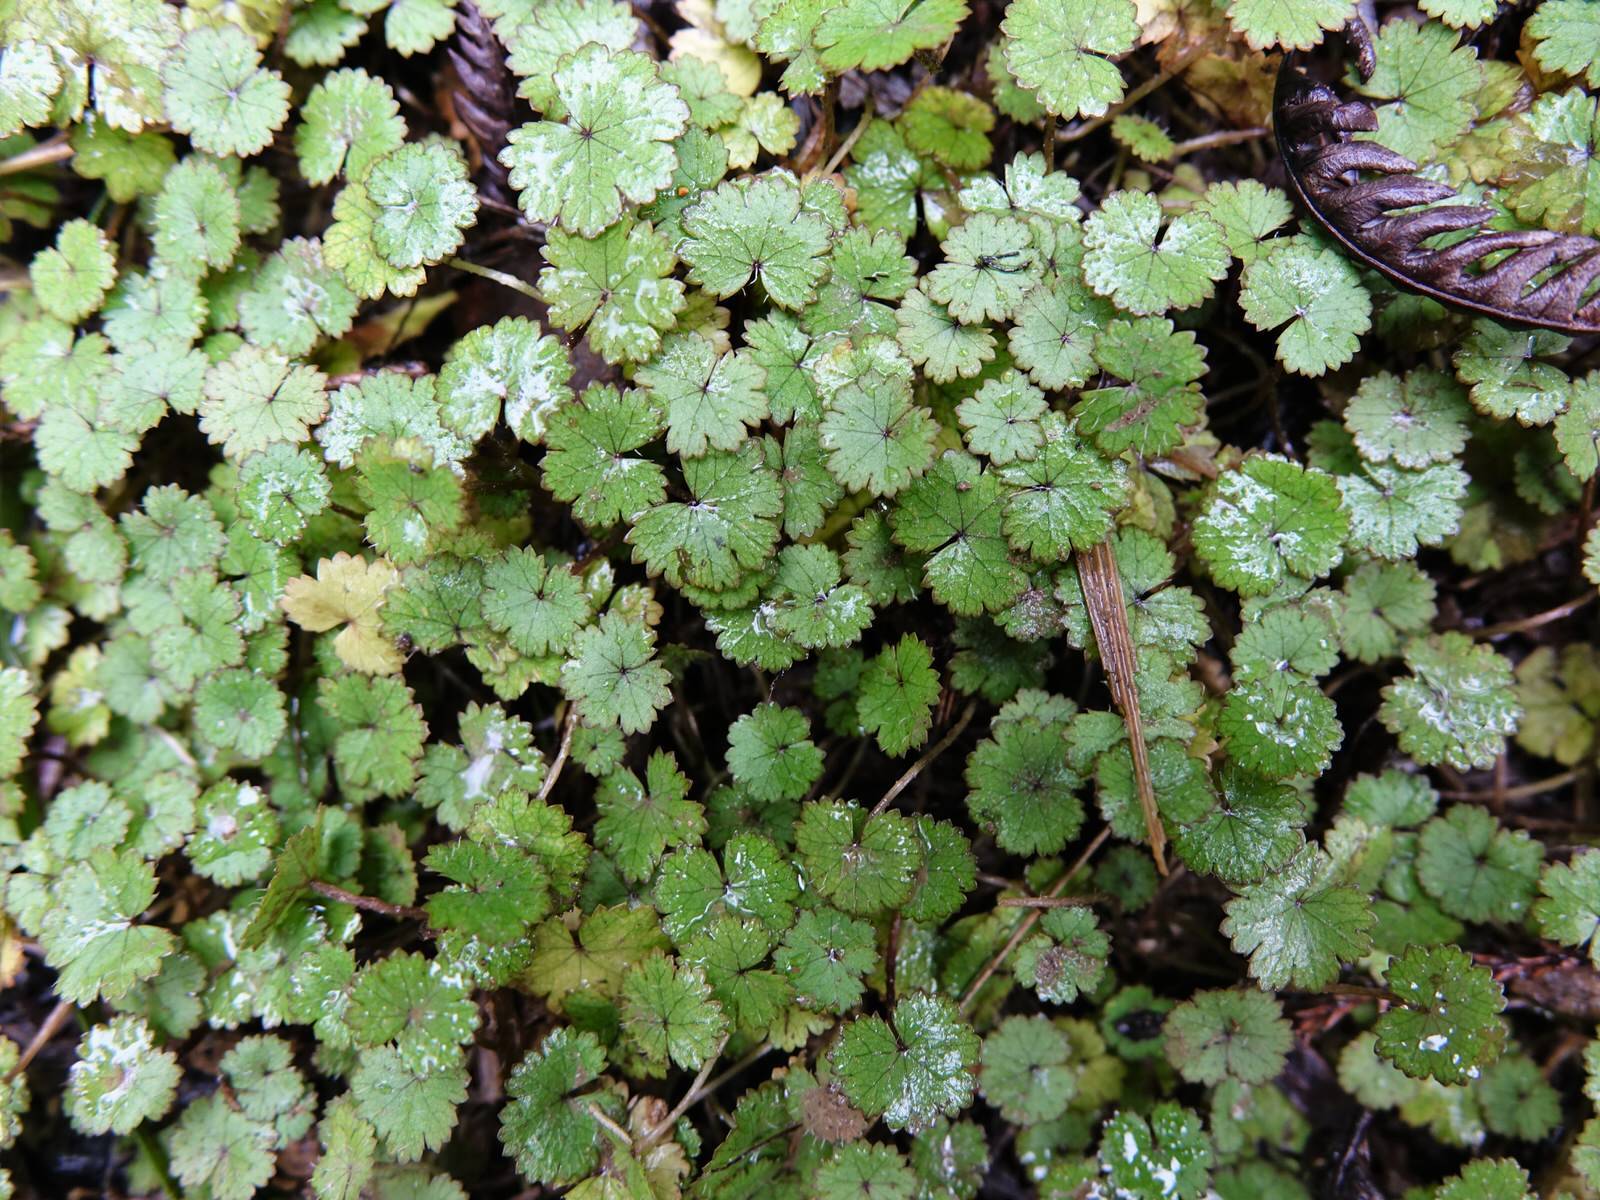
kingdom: Plantae
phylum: Tracheophyta
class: Magnoliopsida
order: Apiales
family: Araliaceae
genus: Hydrocotyle
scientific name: Hydrocotyle moschata
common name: Hairy pennywort
